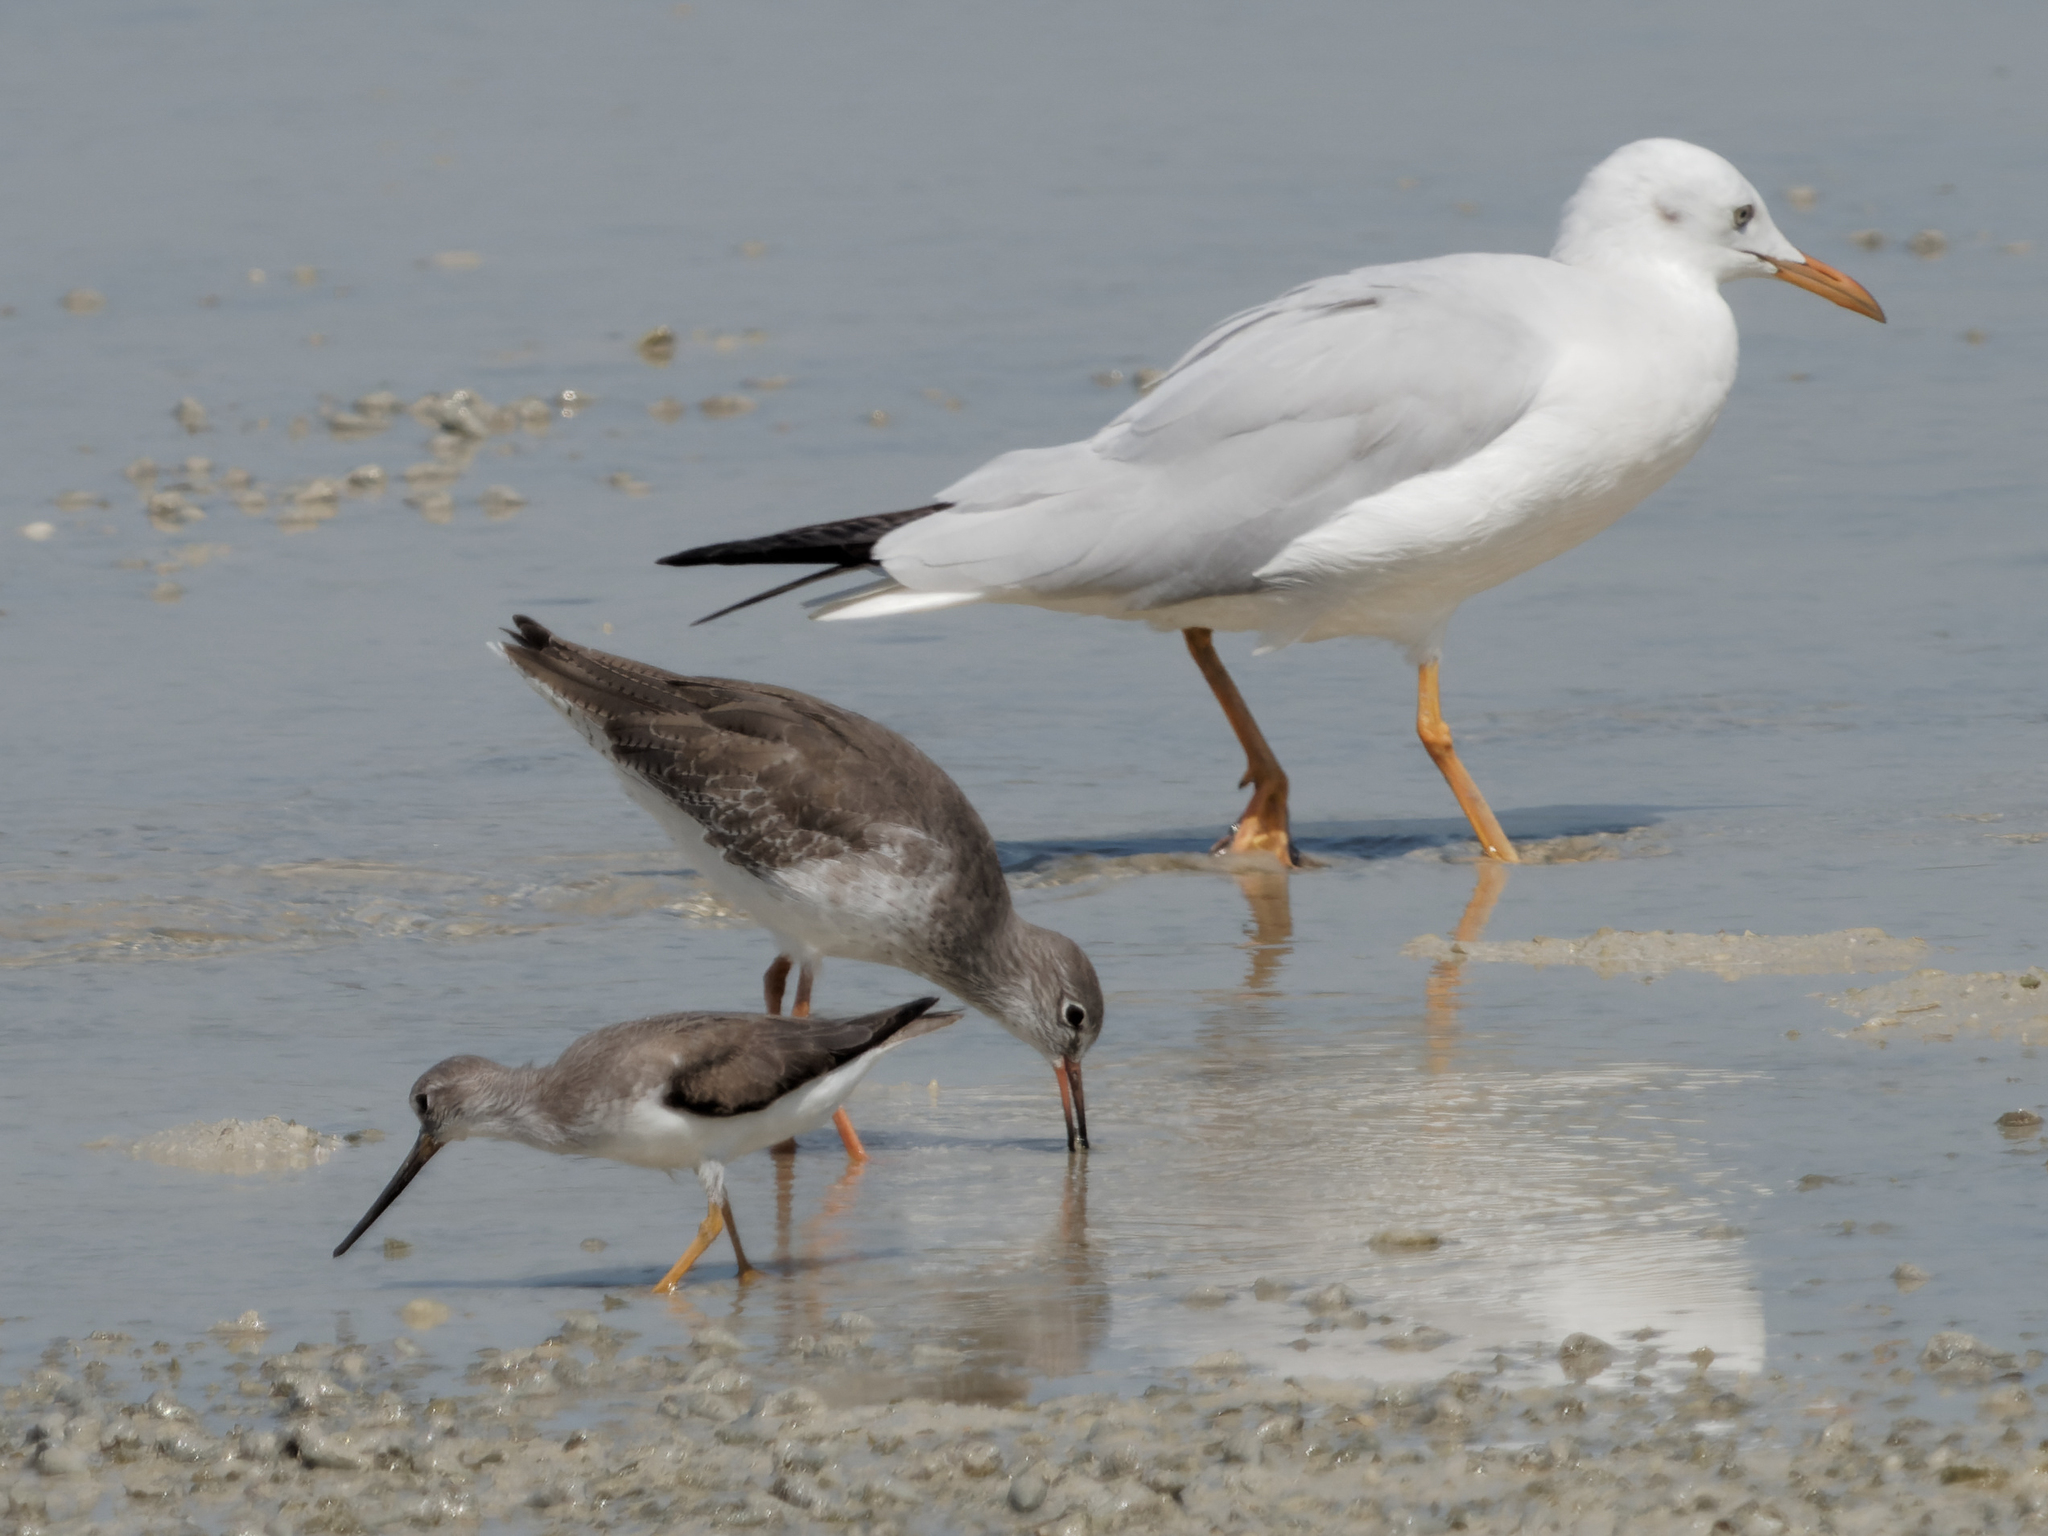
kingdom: Animalia
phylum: Chordata
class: Aves
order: Charadriiformes
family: Scolopacidae
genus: Xenus
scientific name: Xenus cinereus
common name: Terek sandpiper
